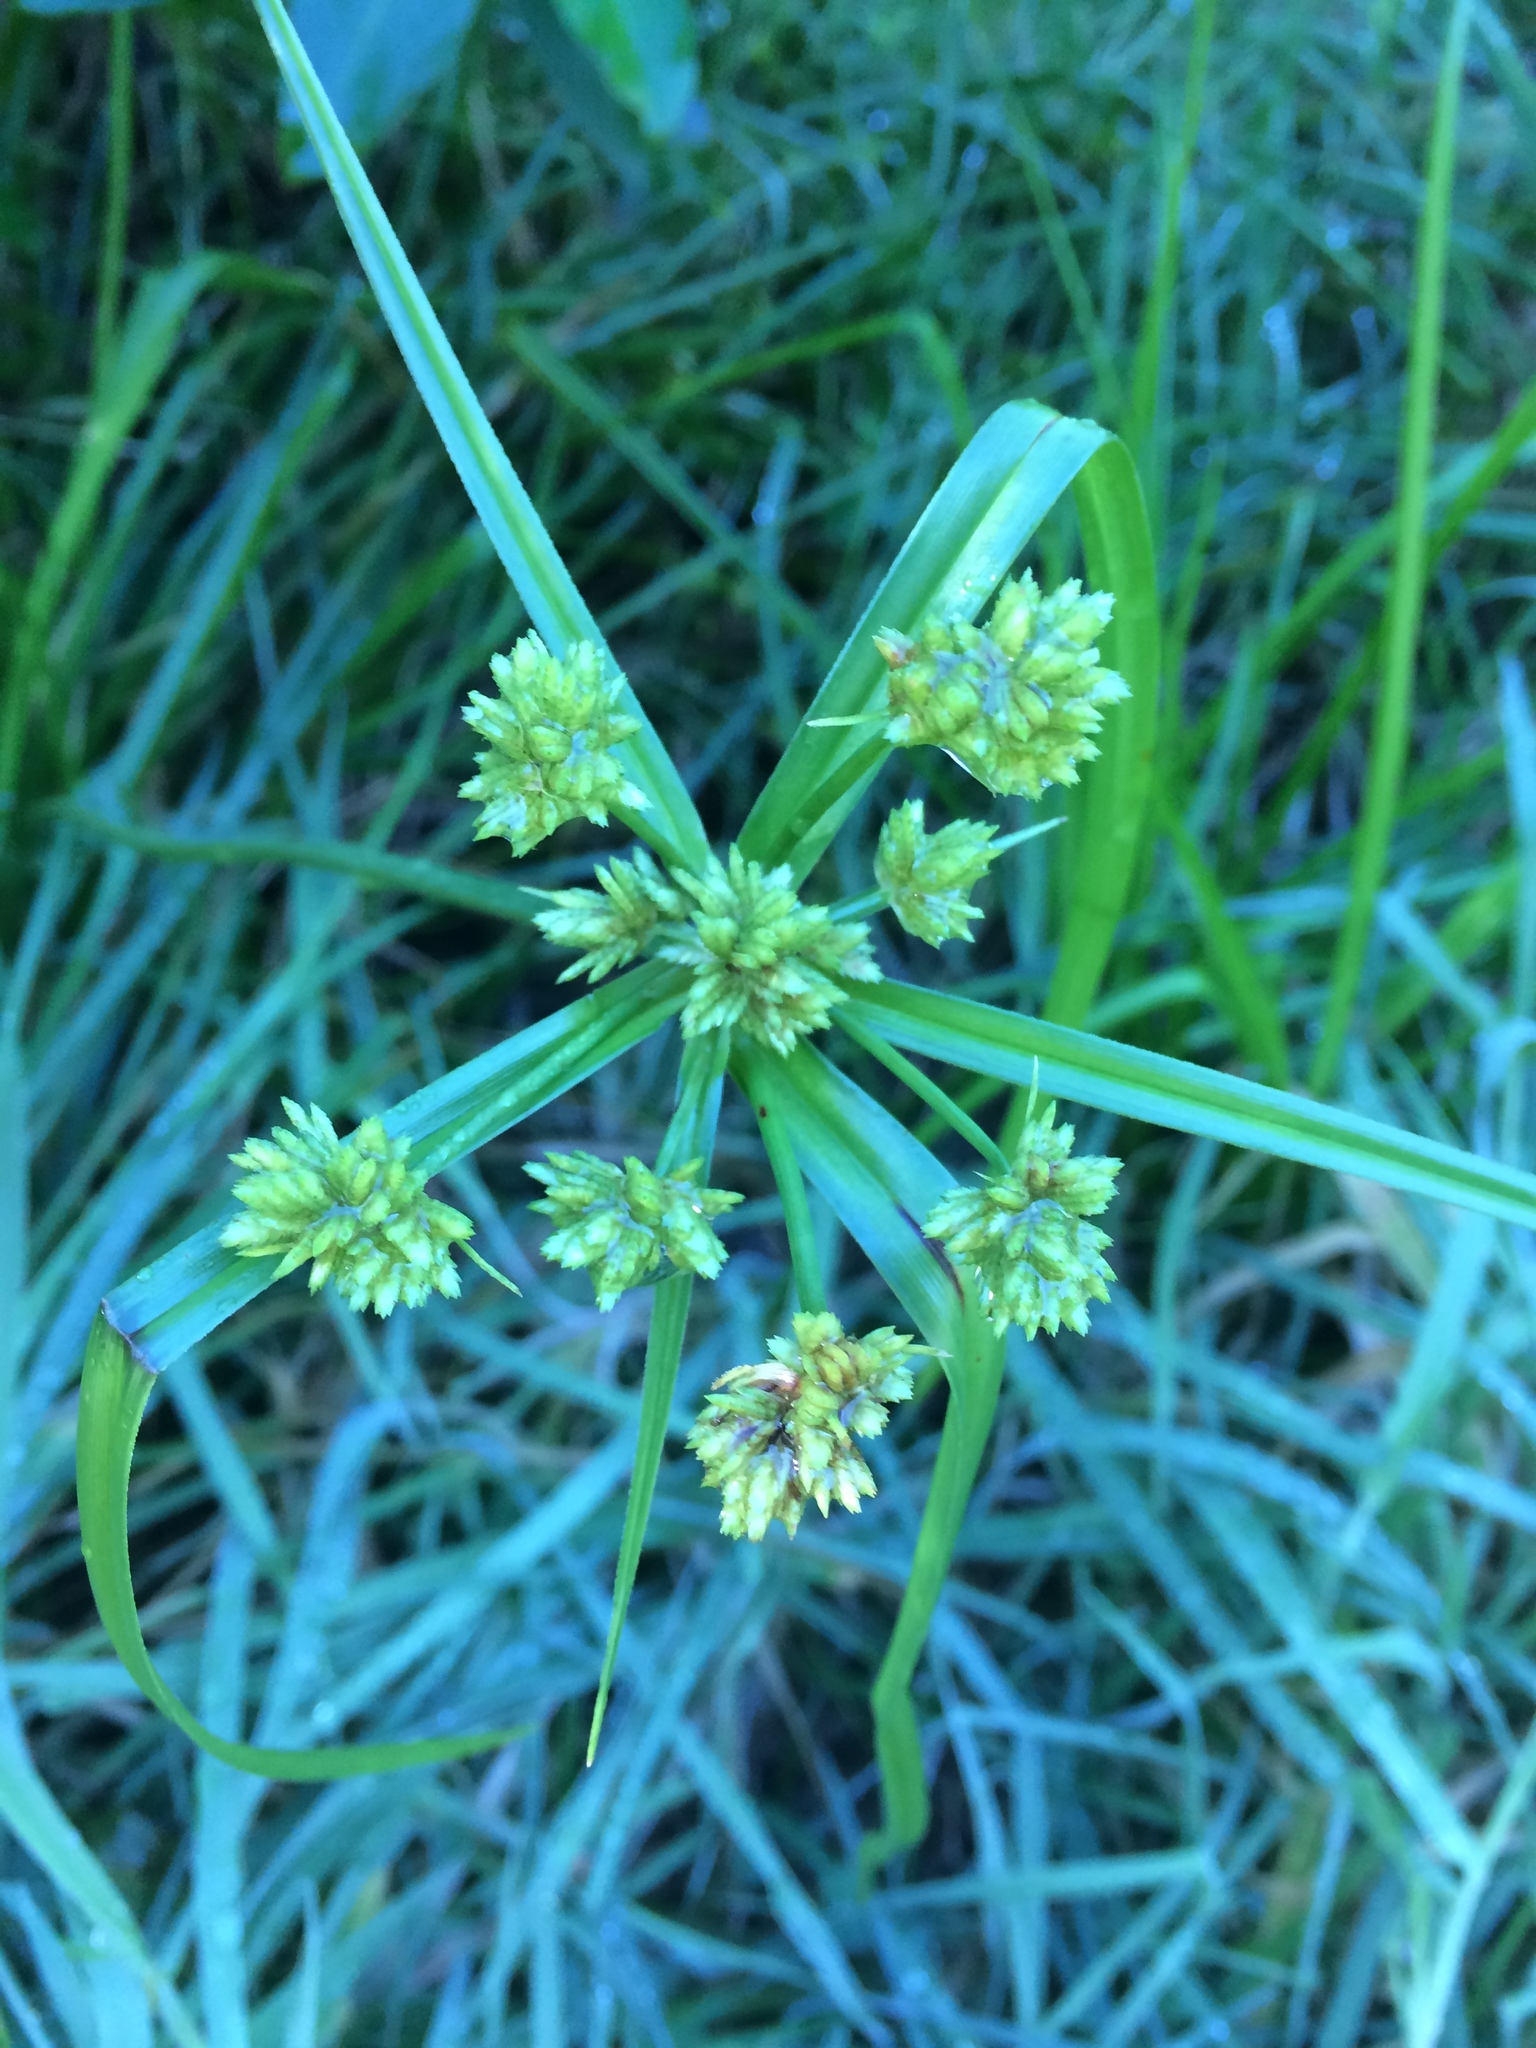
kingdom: Plantae
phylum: Tracheophyta
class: Liliopsida
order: Poales
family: Cyperaceae
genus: Cyperus
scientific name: Cyperus eragrostis
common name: Tall flatsedge
